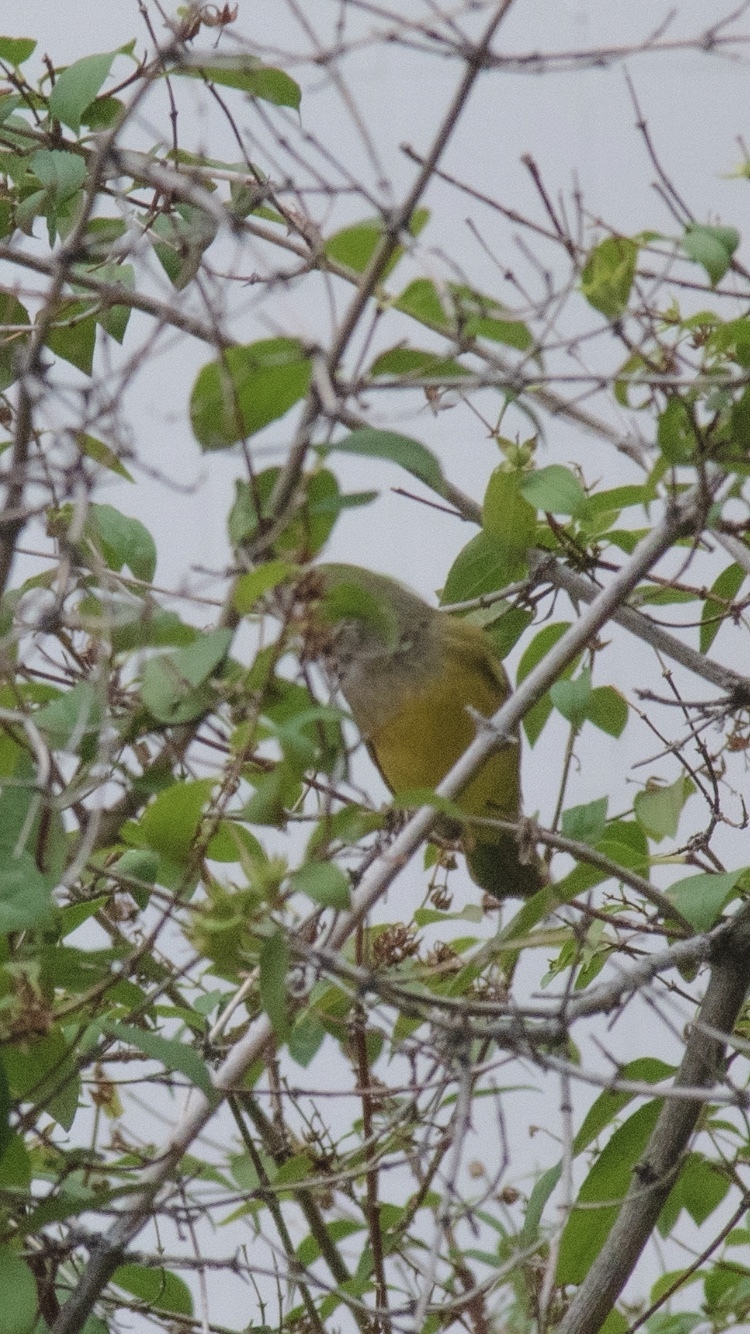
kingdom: Animalia
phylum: Chordata
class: Aves
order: Passeriformes
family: Parulidae
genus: Geothlypis
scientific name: Geothlypis tolmiei
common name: Macgillivray's warbler
